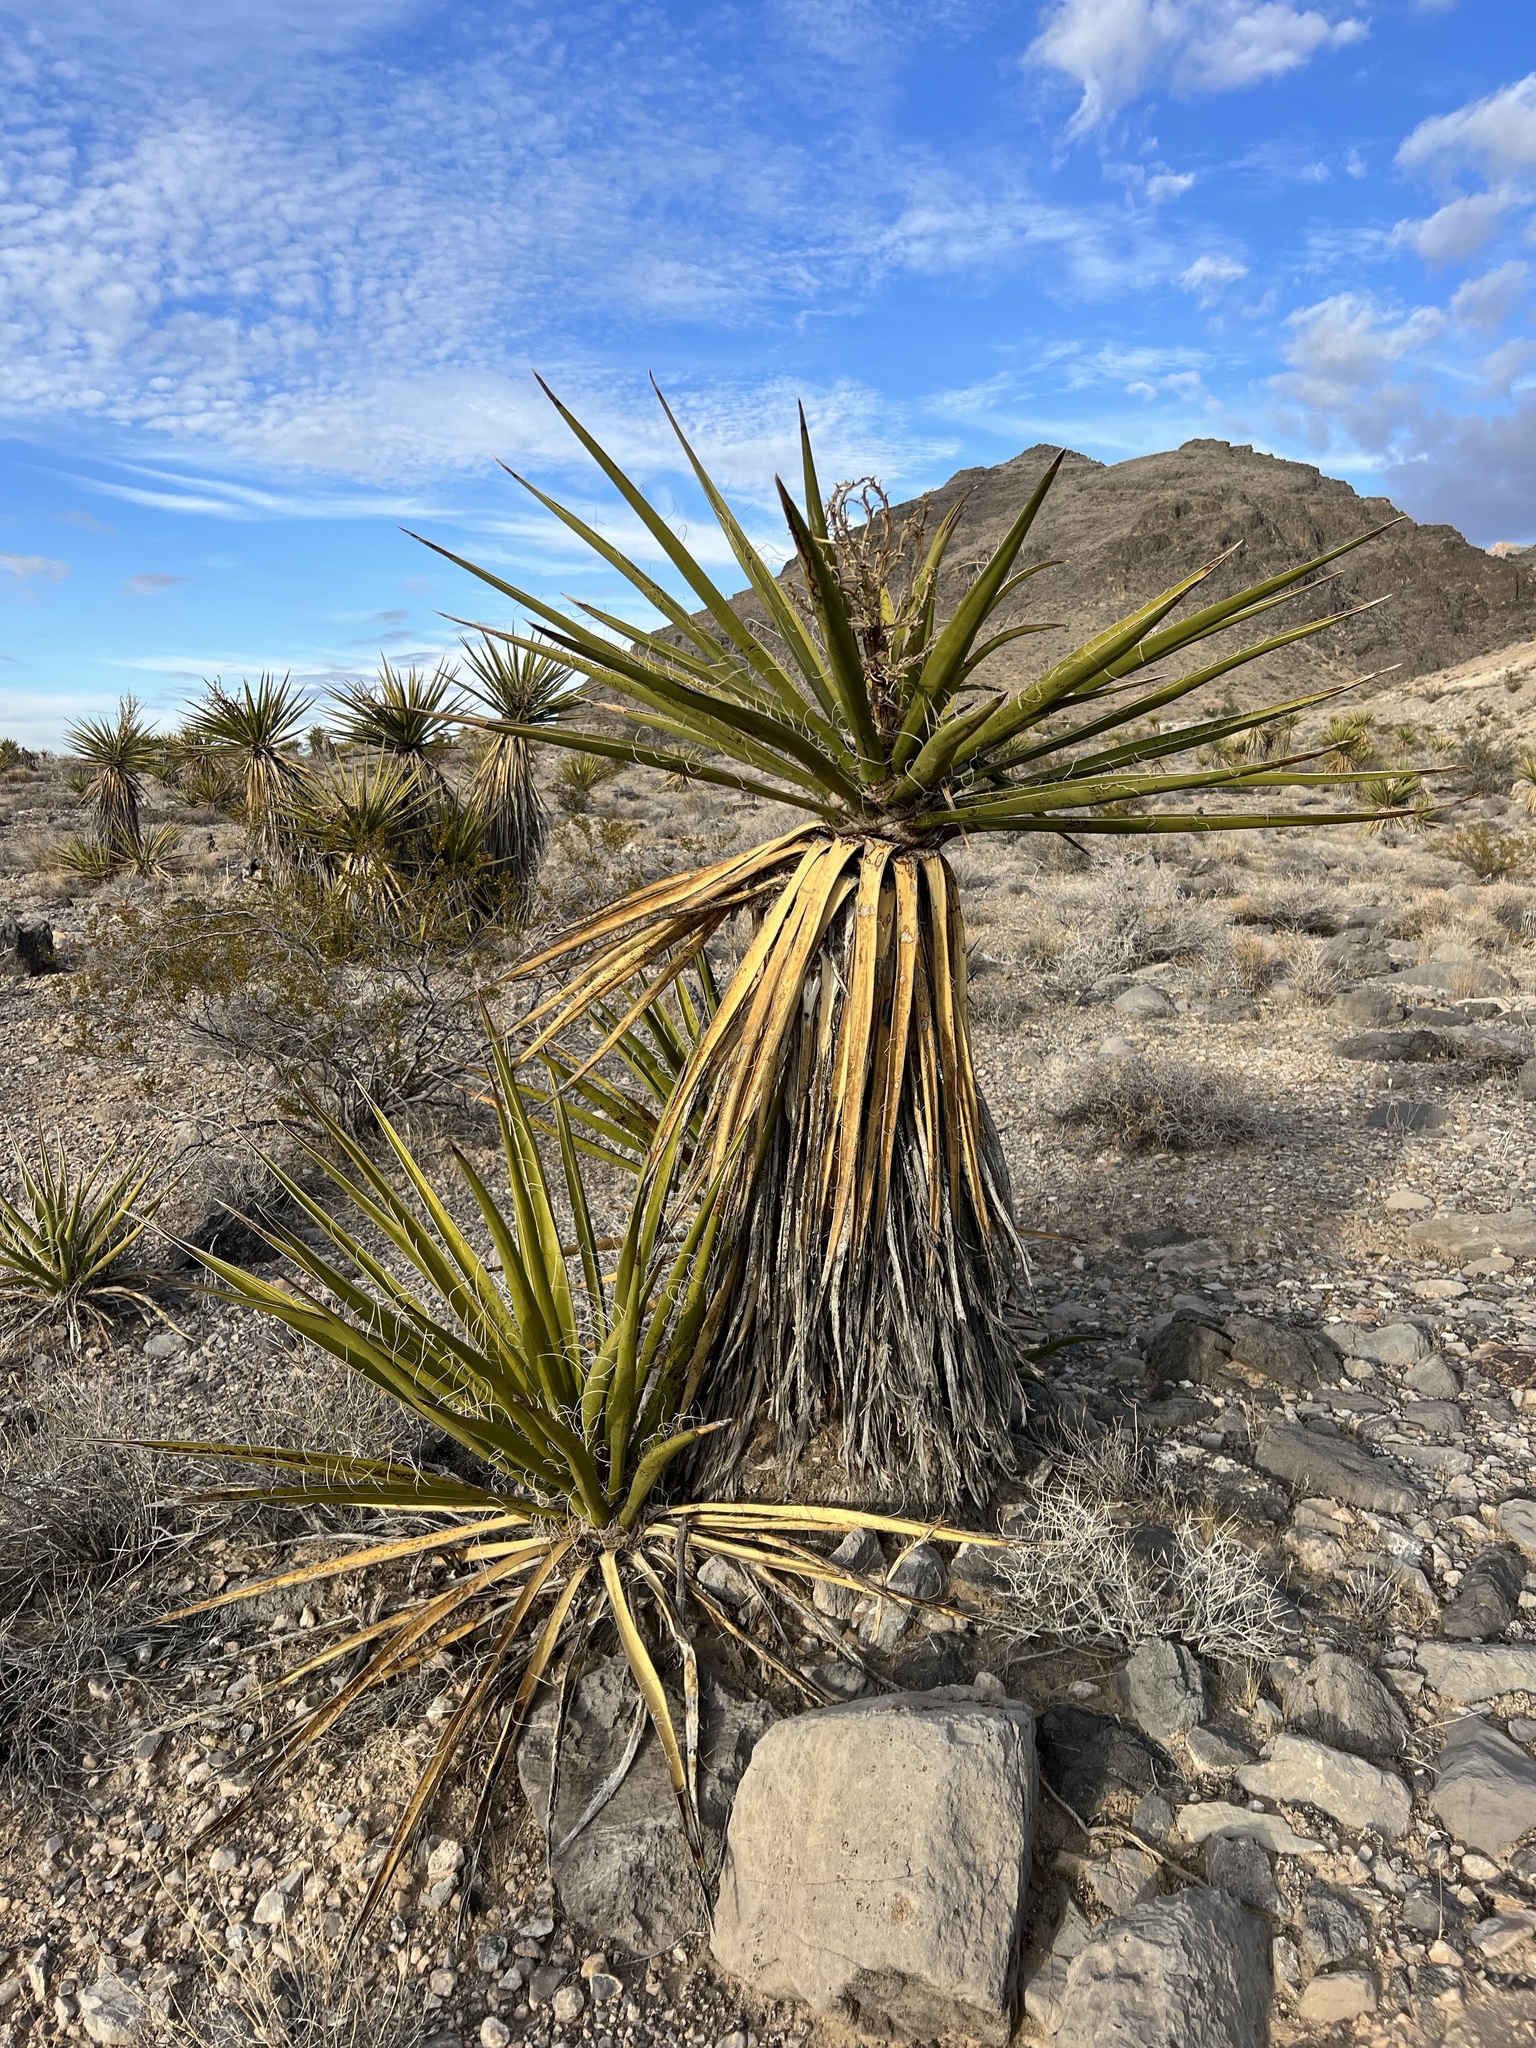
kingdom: Plantae
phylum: Tracheophyta
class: Liliopsida
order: Asparagales
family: Asparagaceae
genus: Yucca
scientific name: Yucca schidigera
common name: Mojave yucca
